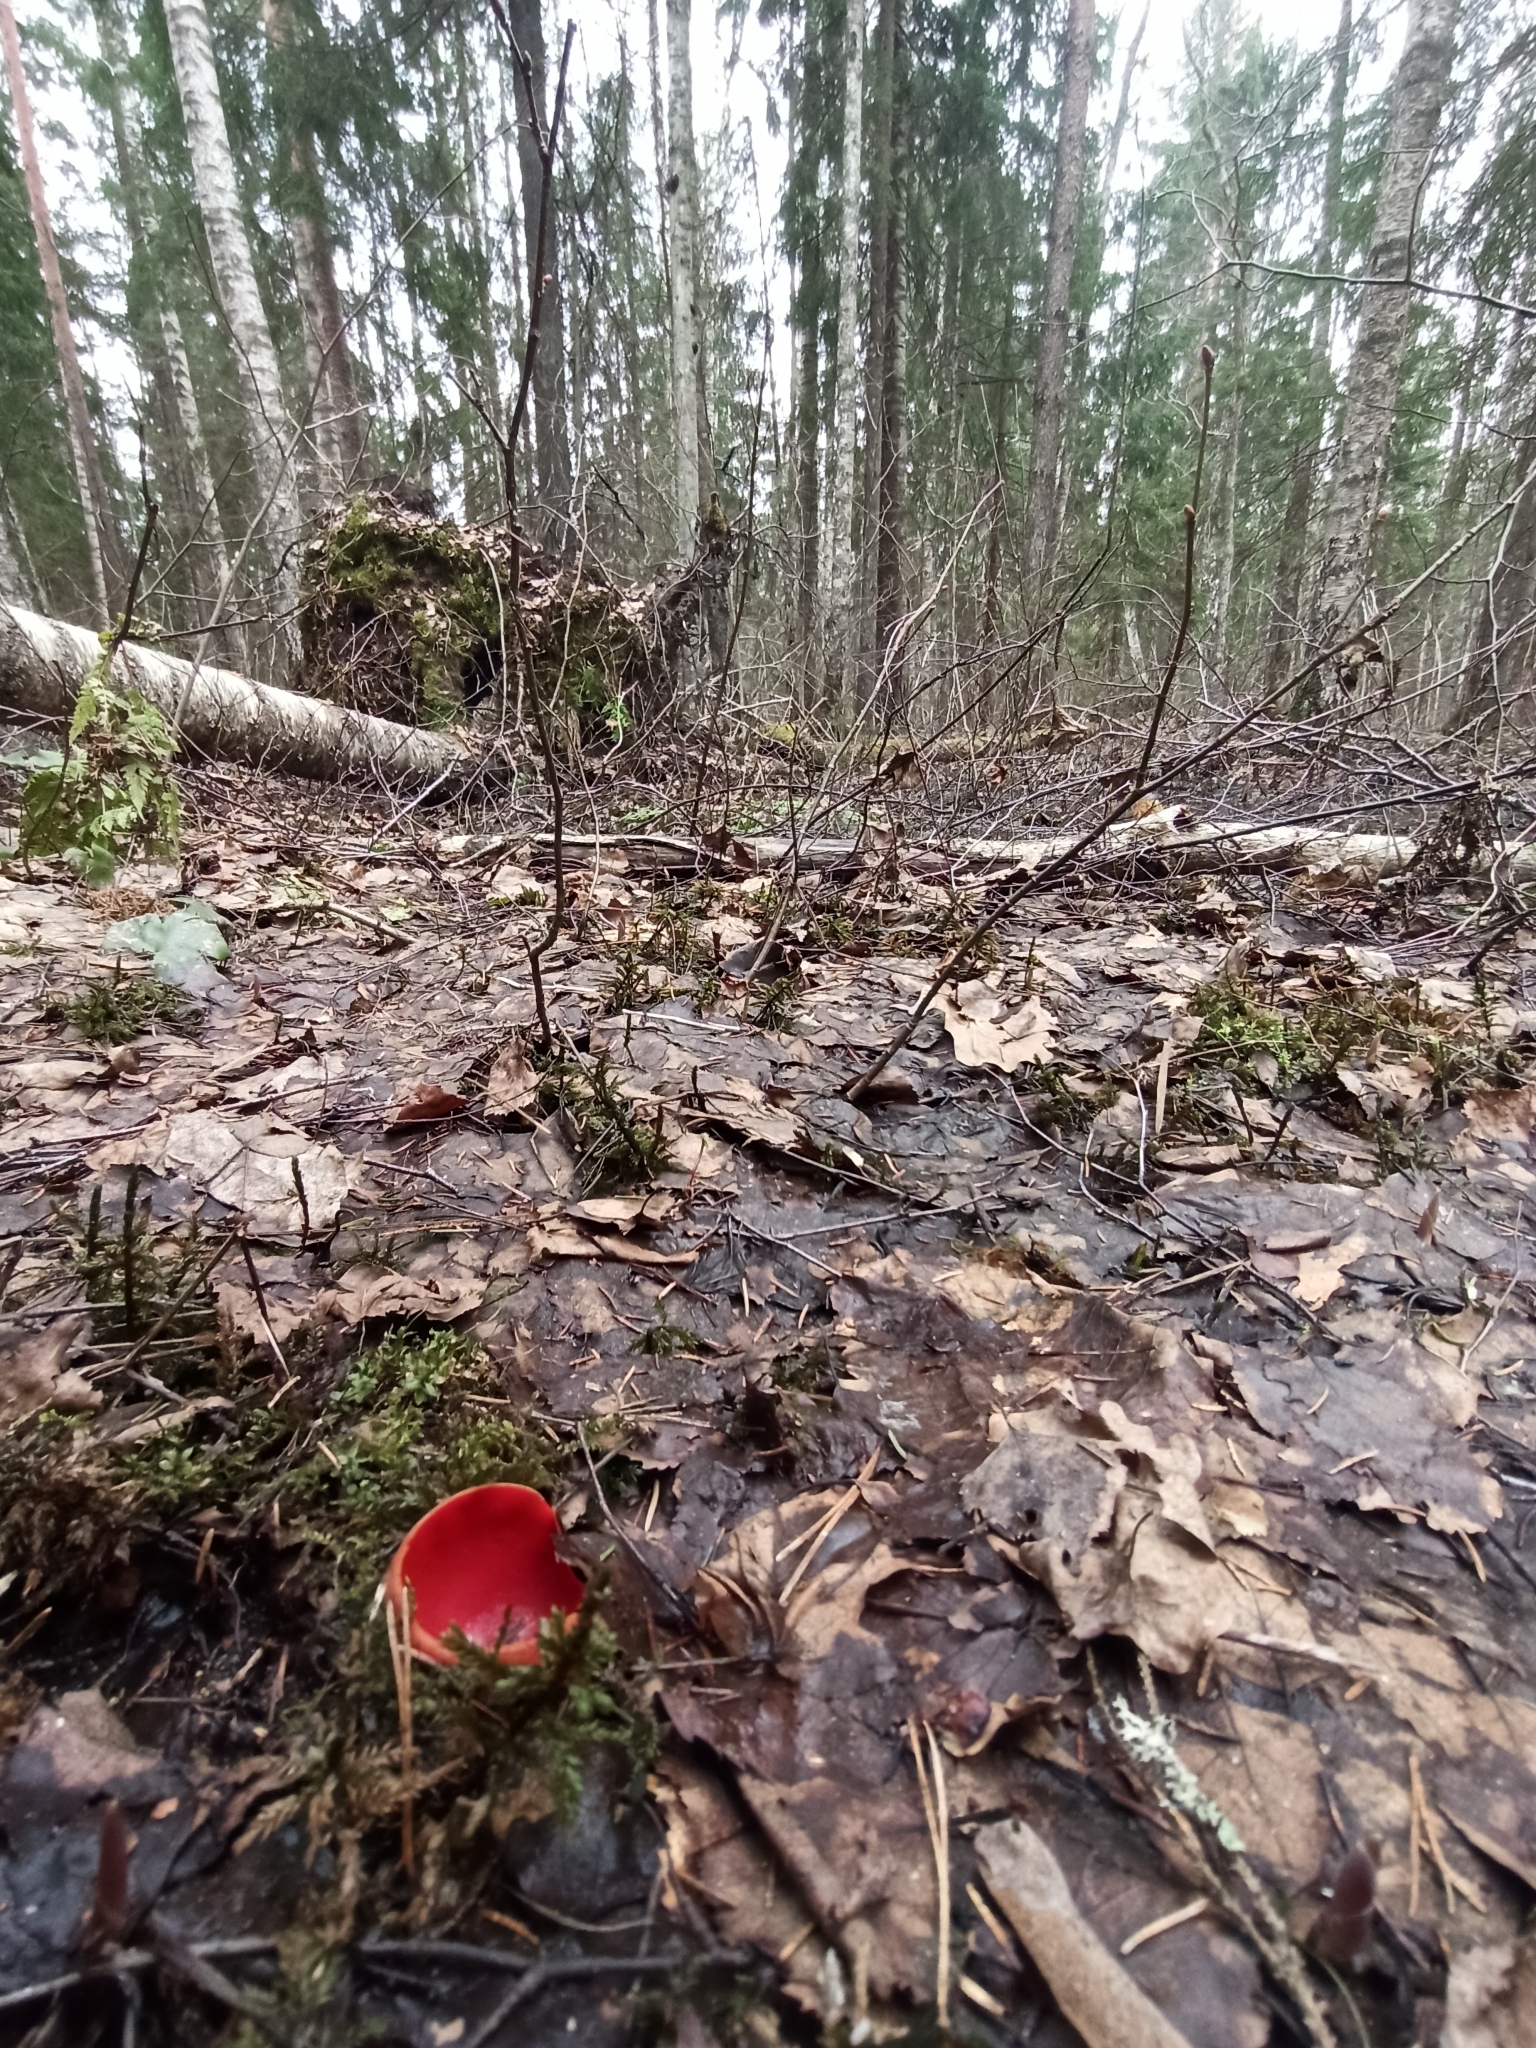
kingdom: Fungi
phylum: Ascomycota
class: Pezizomycetes
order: Pezizales
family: Sarcoscyphaceae
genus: Sarcoscypha
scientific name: Sarcoscypha austriaca
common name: Scarlet elfcup
